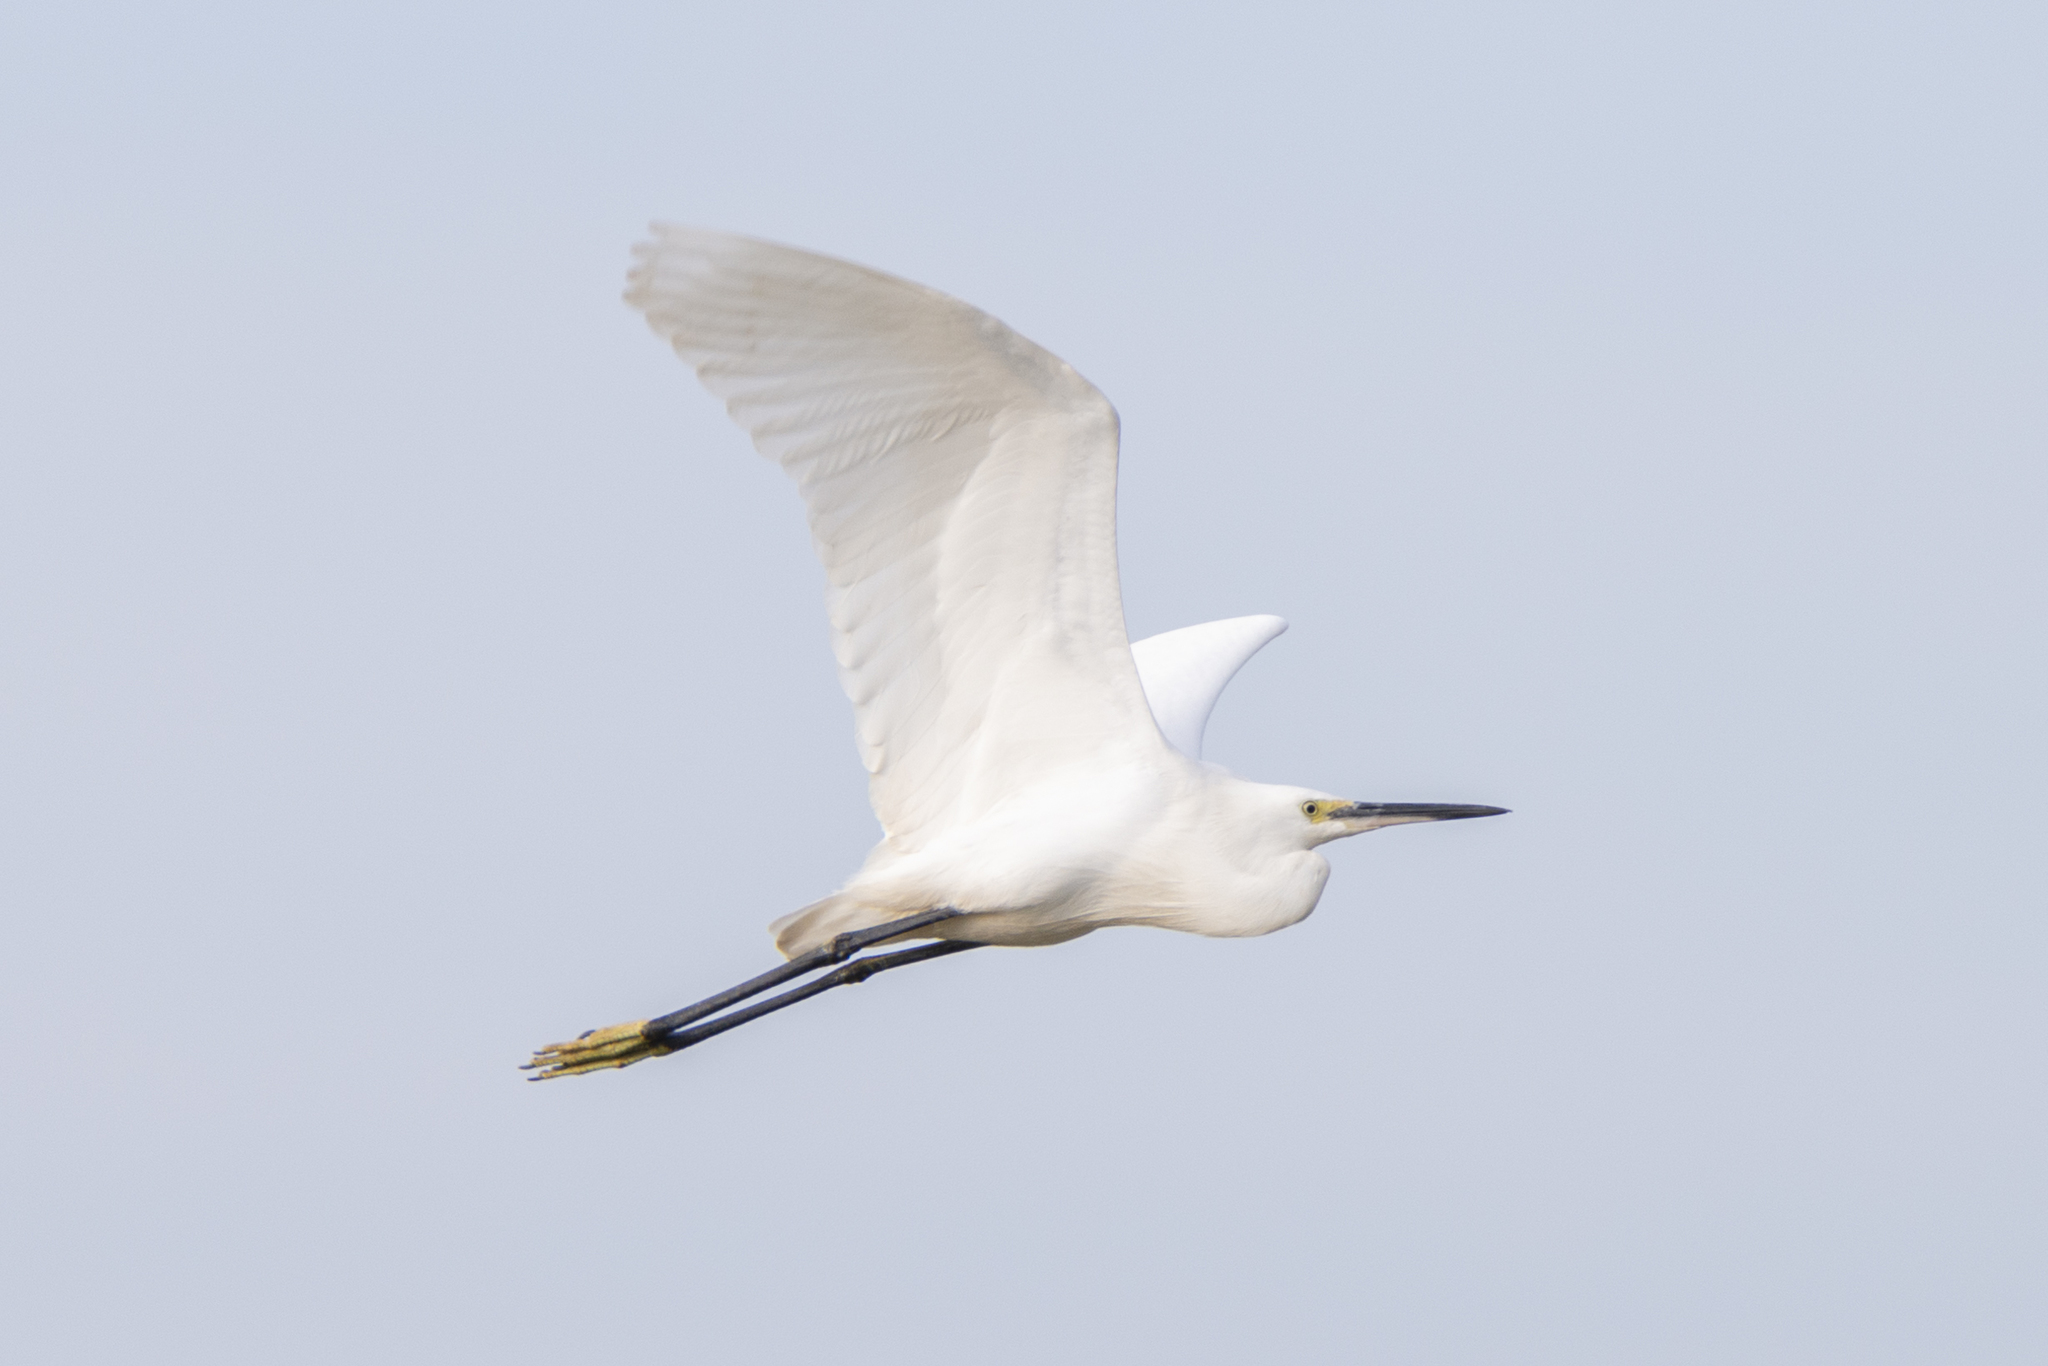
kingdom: Animalia
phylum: Chordata
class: Aves
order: Pelecaniformes
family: Ardeidae
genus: Egretta
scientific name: Egretta garzetta
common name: Little egret
